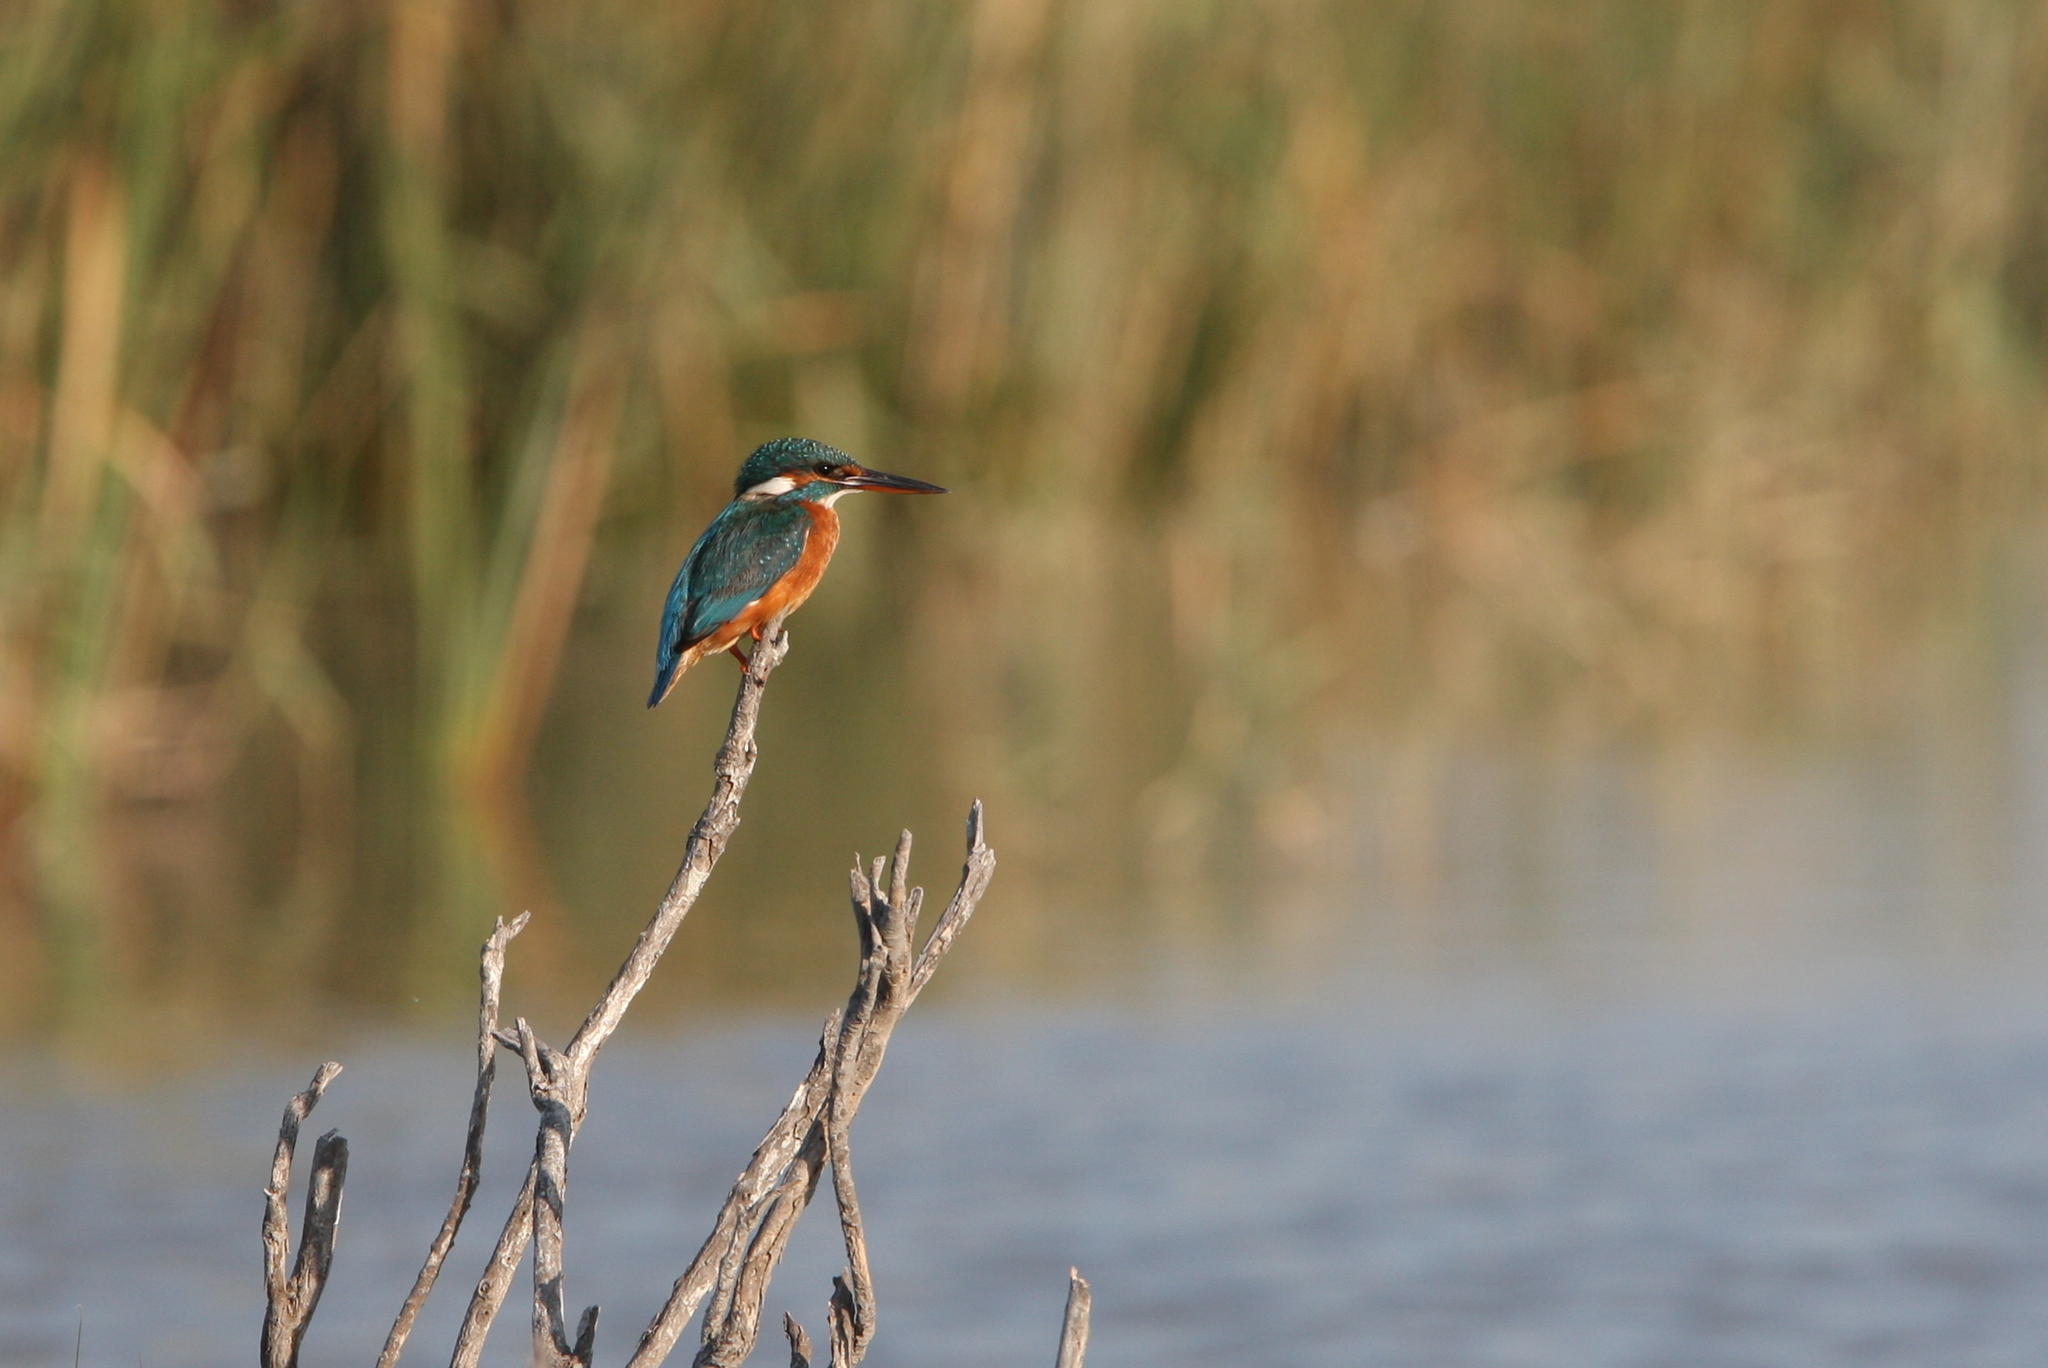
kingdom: Animalia
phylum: Chordata
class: Aves
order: Coraciiformes
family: Alcedinidae
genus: Alcedo
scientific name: Alcedo atthis
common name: Common kingfisher
